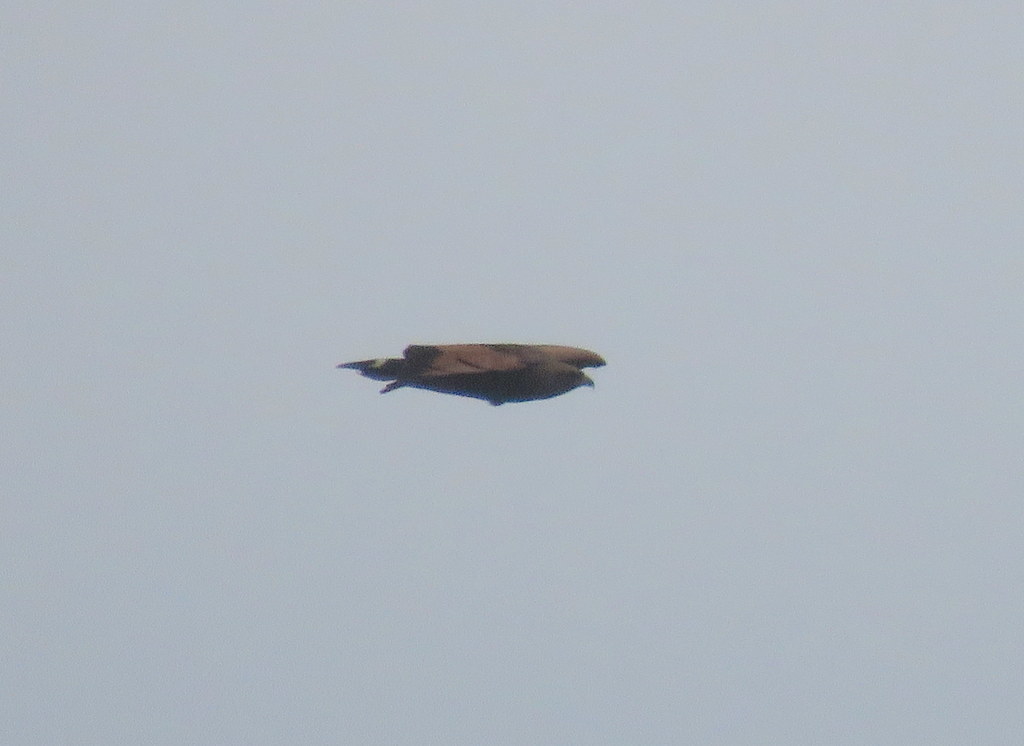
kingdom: Animalia
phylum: Chordata
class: Aves
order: Accipitriformes
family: Accipitridae
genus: Buteogallus
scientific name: Buteogallus meridionalis
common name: Savanna hawk
